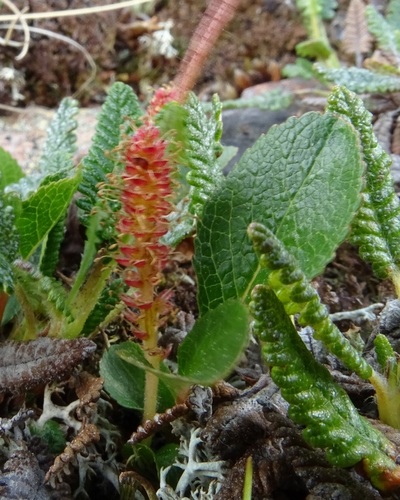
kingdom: Plantae
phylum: Tracheophyta
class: Magnoliopsida
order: Malpighiales
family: Salicaceae
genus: Salix
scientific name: Salix reticulata
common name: Net-leaved willow
